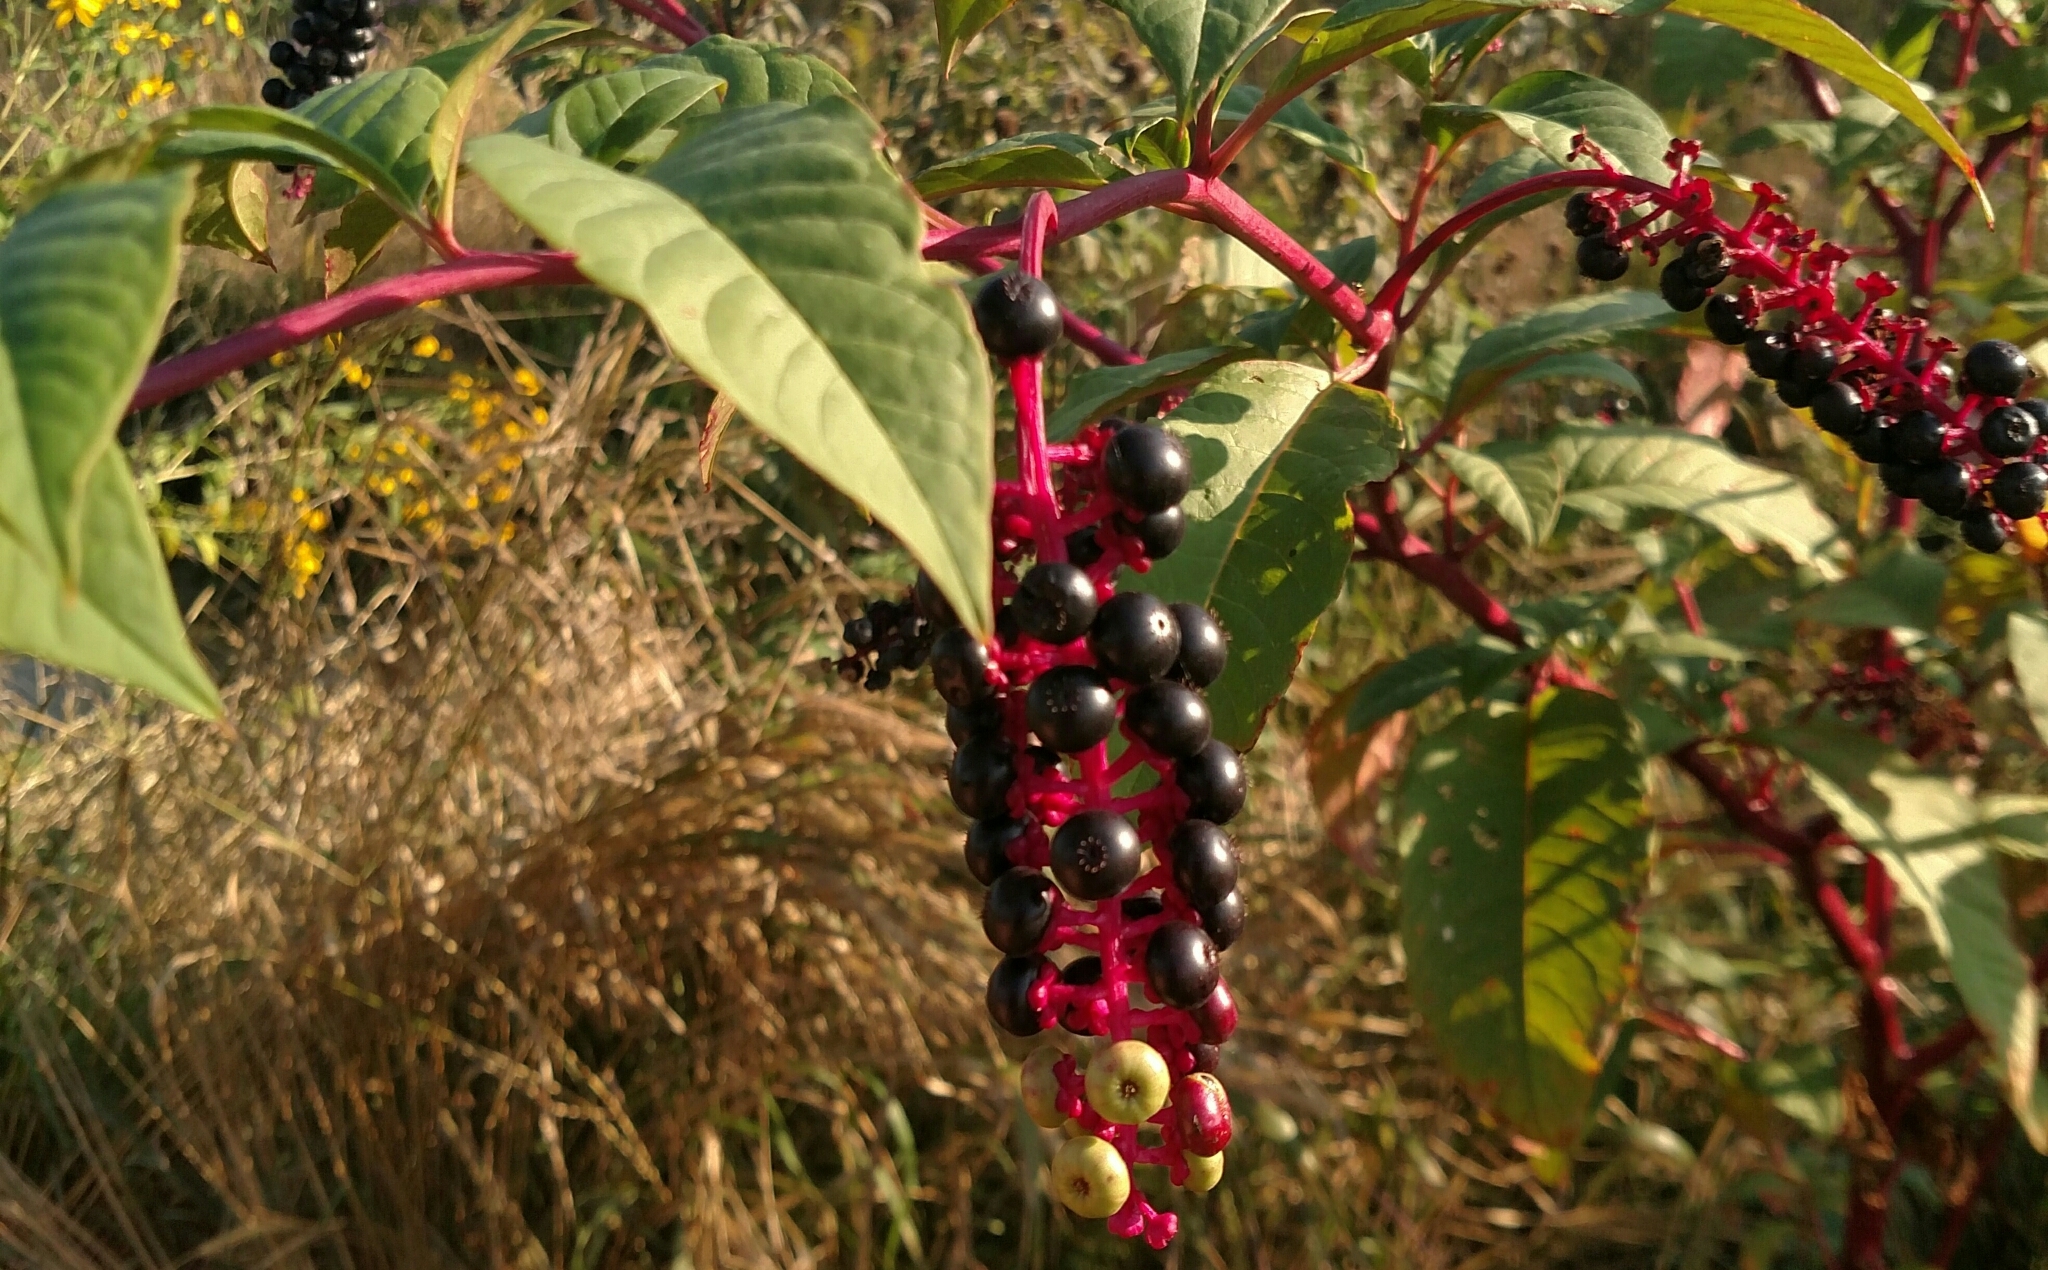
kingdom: Plantae
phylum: Tracheophyta
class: Magnoliopsida
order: Caryophyllales
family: Phytolaccaceae
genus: Phytolacca
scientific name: Phytolacca americana
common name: American pokeweed
